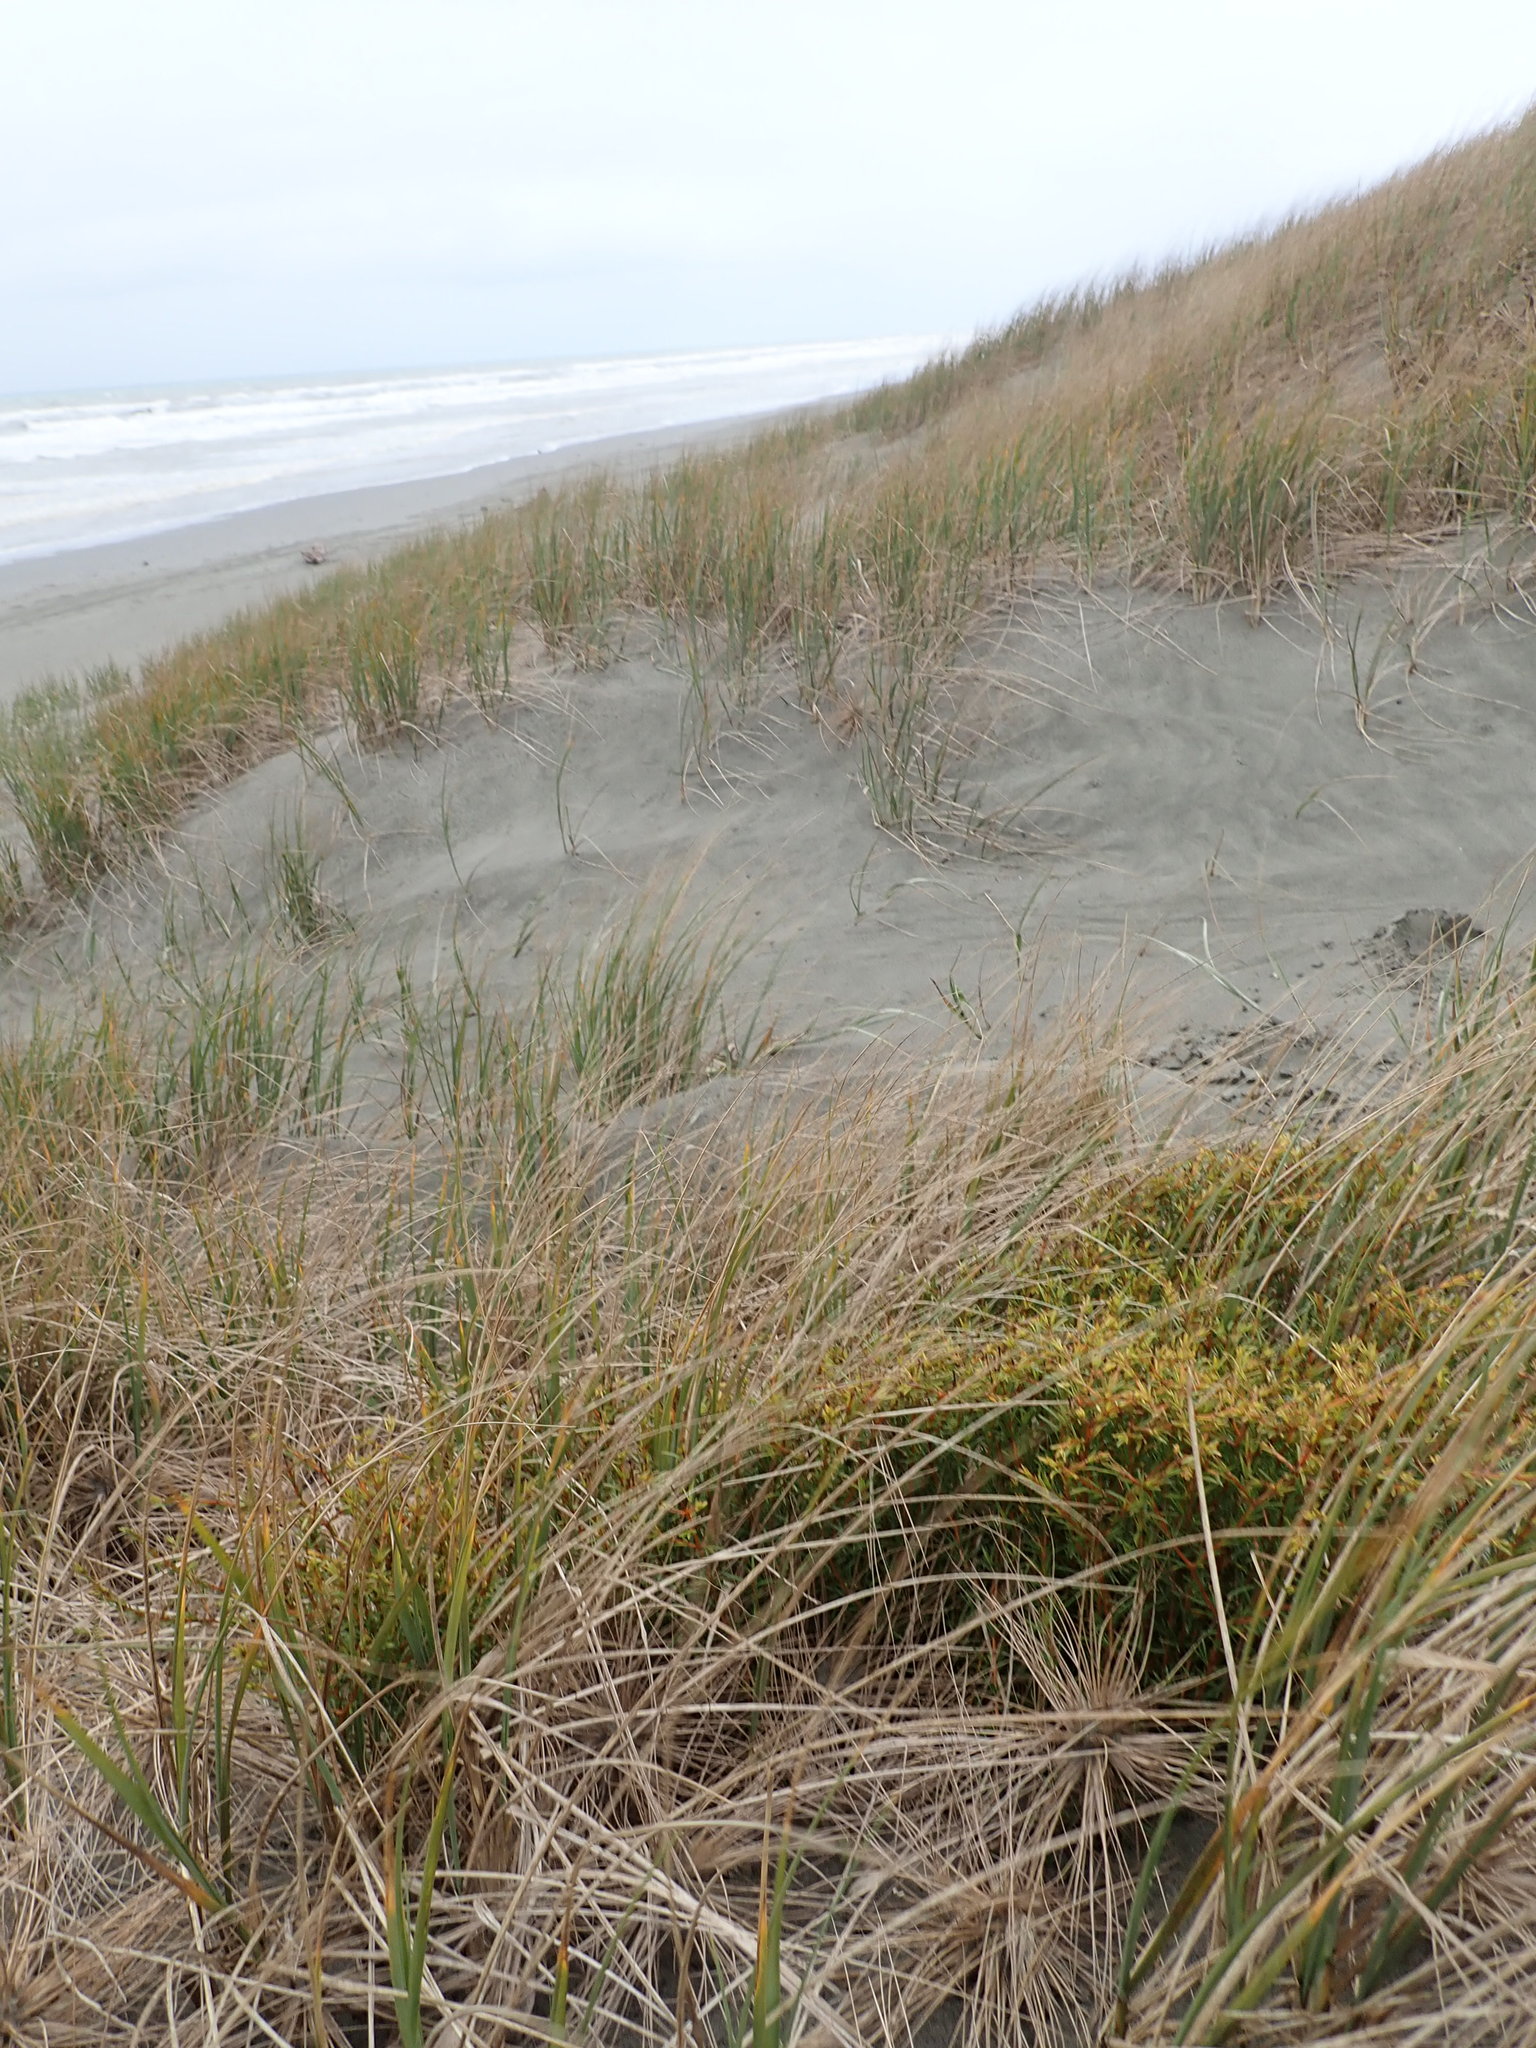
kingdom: Plantae
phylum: Tracheophyta
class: Magnoliopsida
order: Gentianales
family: Rubiaceae
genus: Coprosma
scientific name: Coprosma acerosa
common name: Sand coprosma
